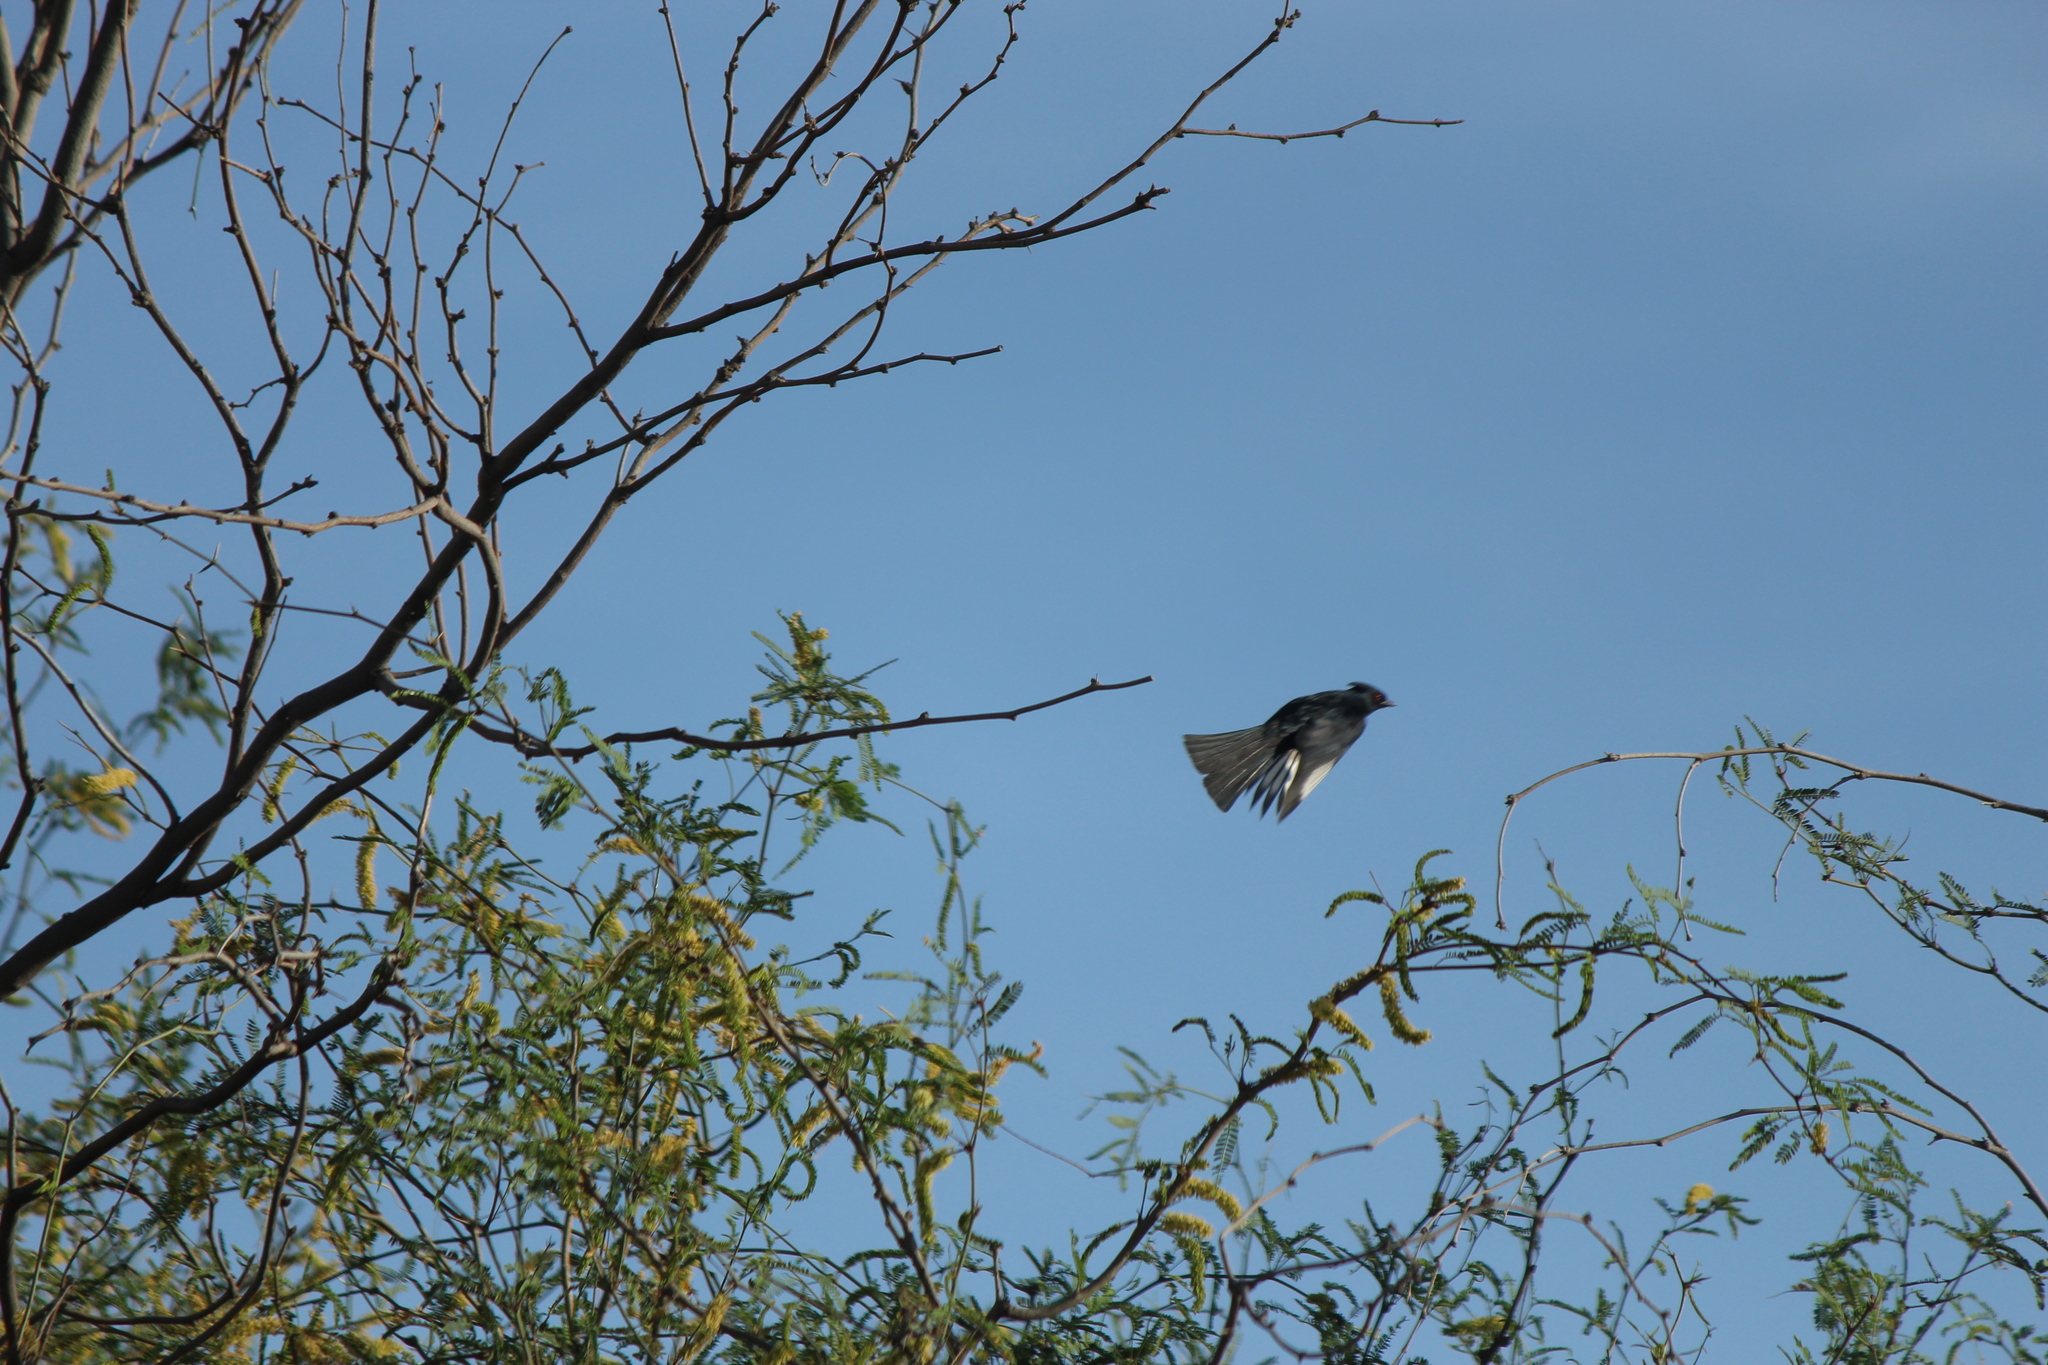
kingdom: Animalia
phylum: Chordata
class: Aves
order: Passeriformes
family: Ptilogonatidae
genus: Phainopepla
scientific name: Phainopepla nitens
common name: Phainopepla
